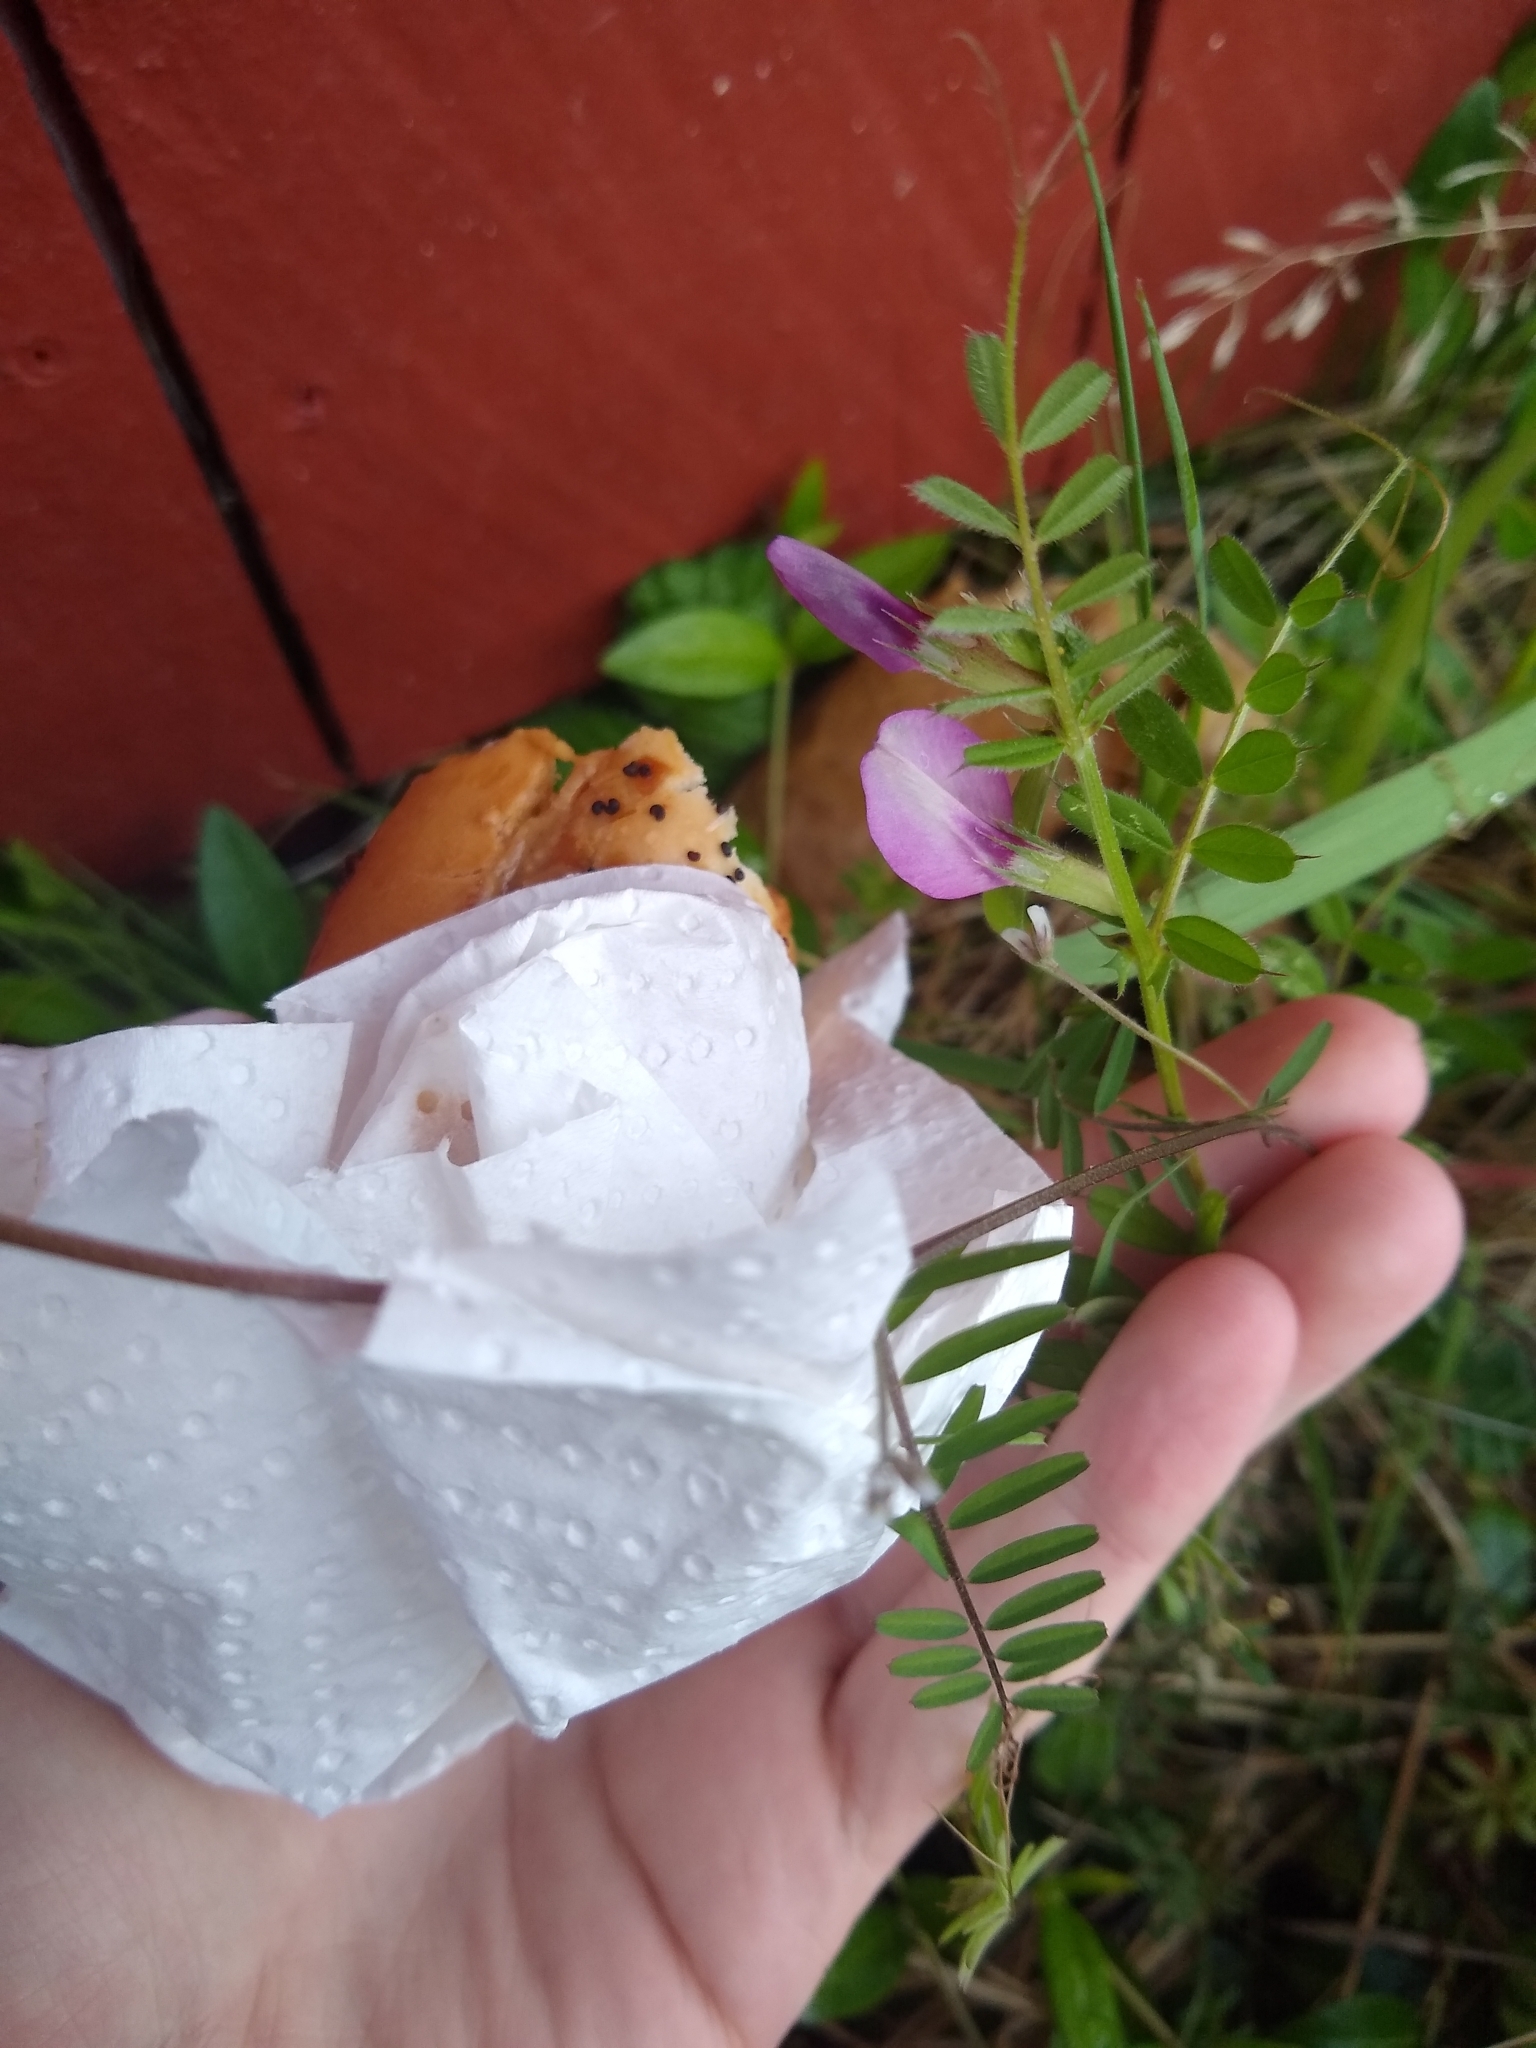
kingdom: Plantae
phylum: Tracheophyta
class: Magnoliopsida
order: Fabales
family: Fabaceae
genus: Vicia
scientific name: Vicia sativa
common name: Garden vetch
